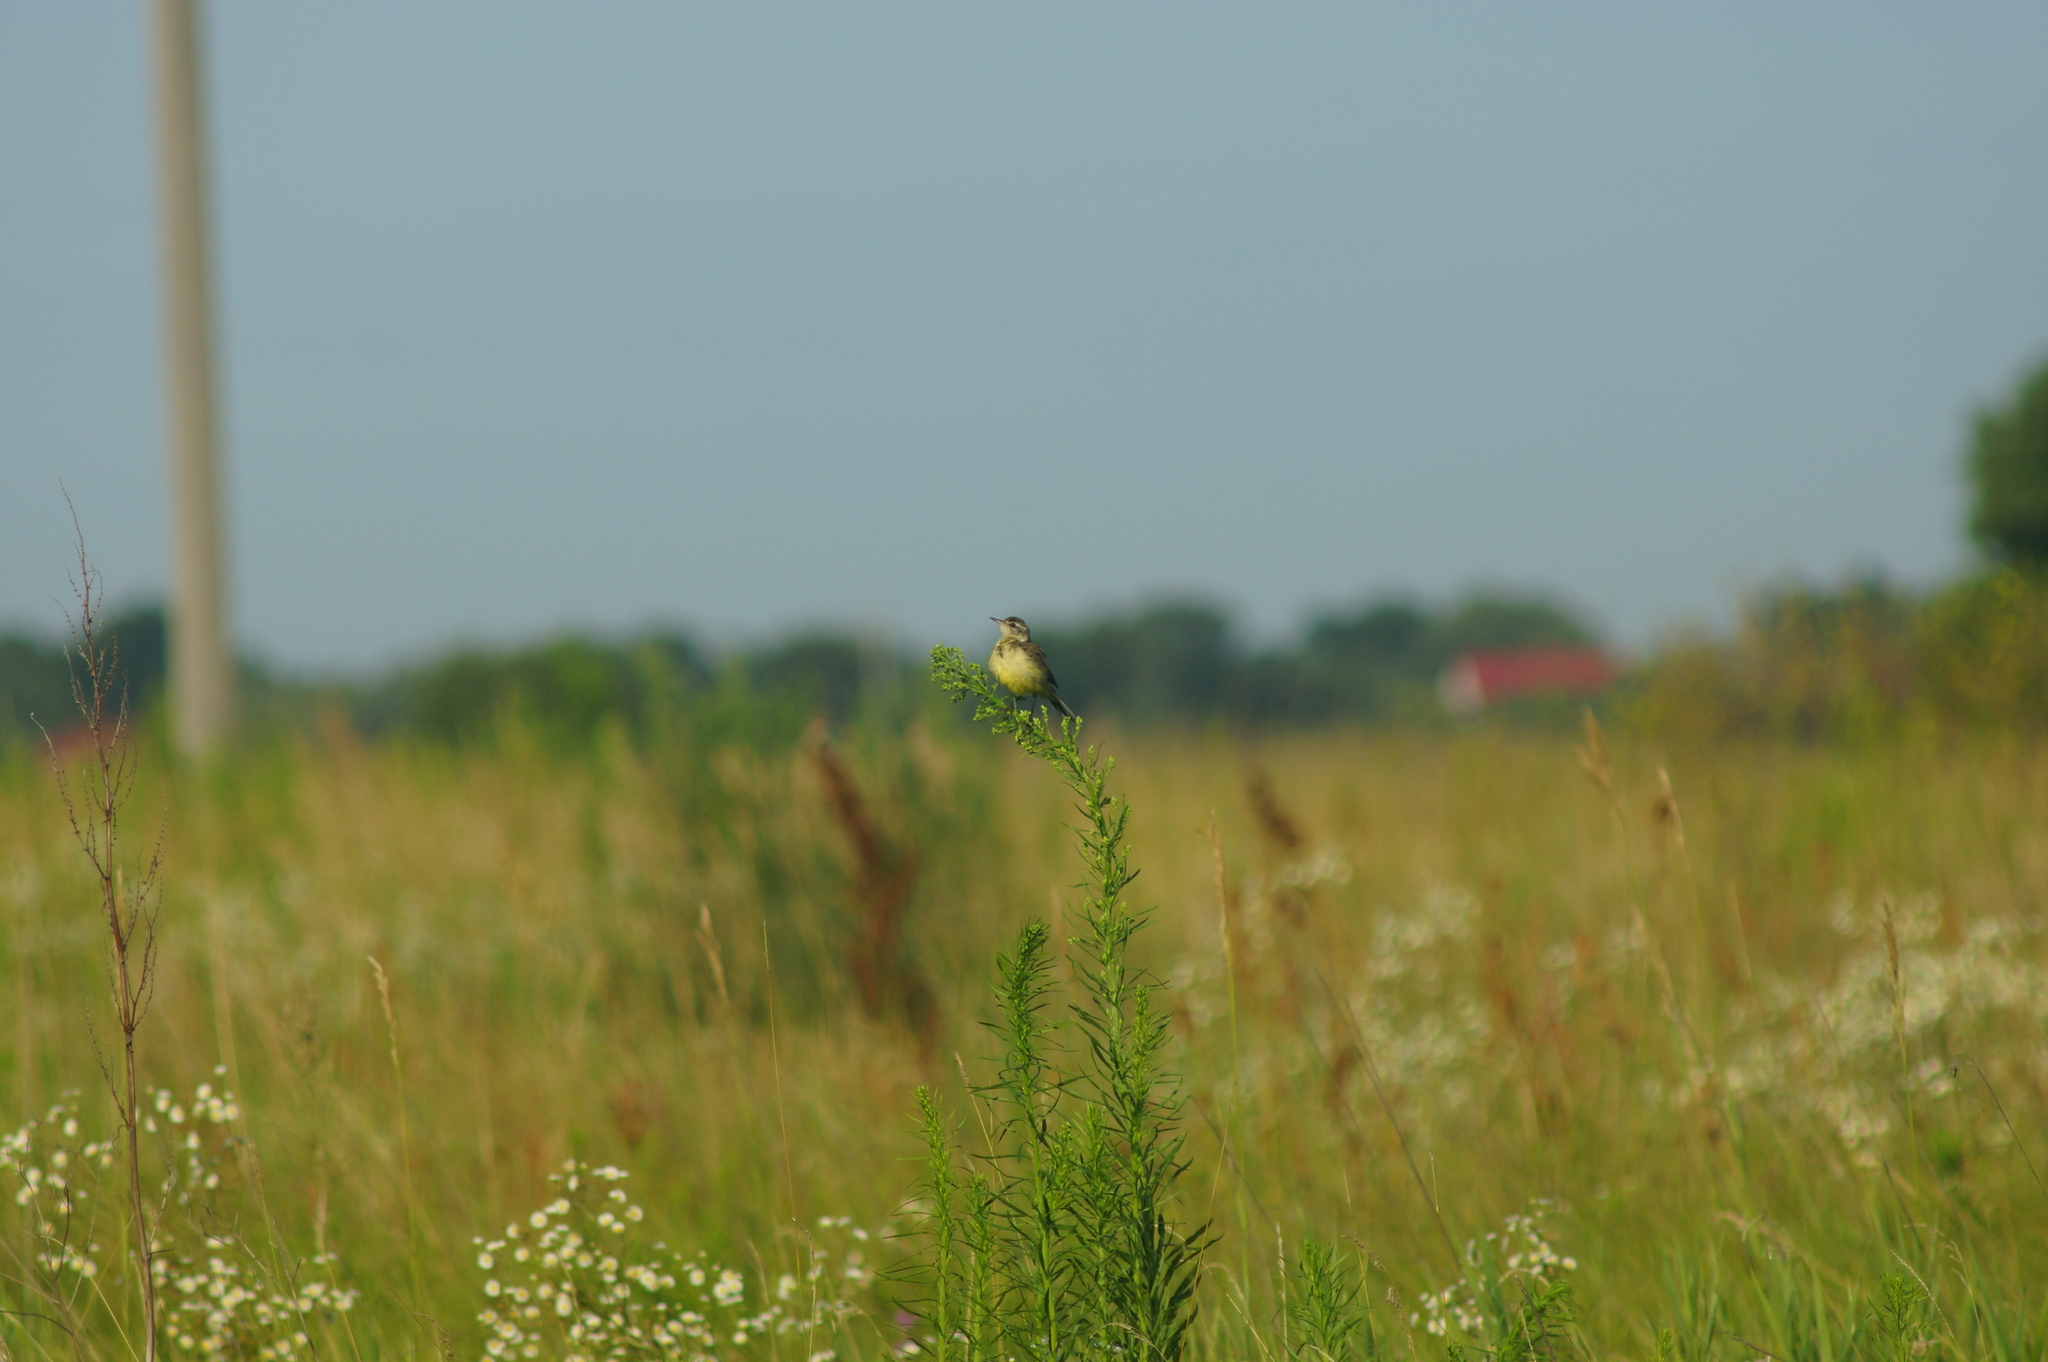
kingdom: Animalia
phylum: Chordata
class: Aves
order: Passeriformes
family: Motacillidae
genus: Motacilla
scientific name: Motacilla flava
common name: Western yellow wagtail
